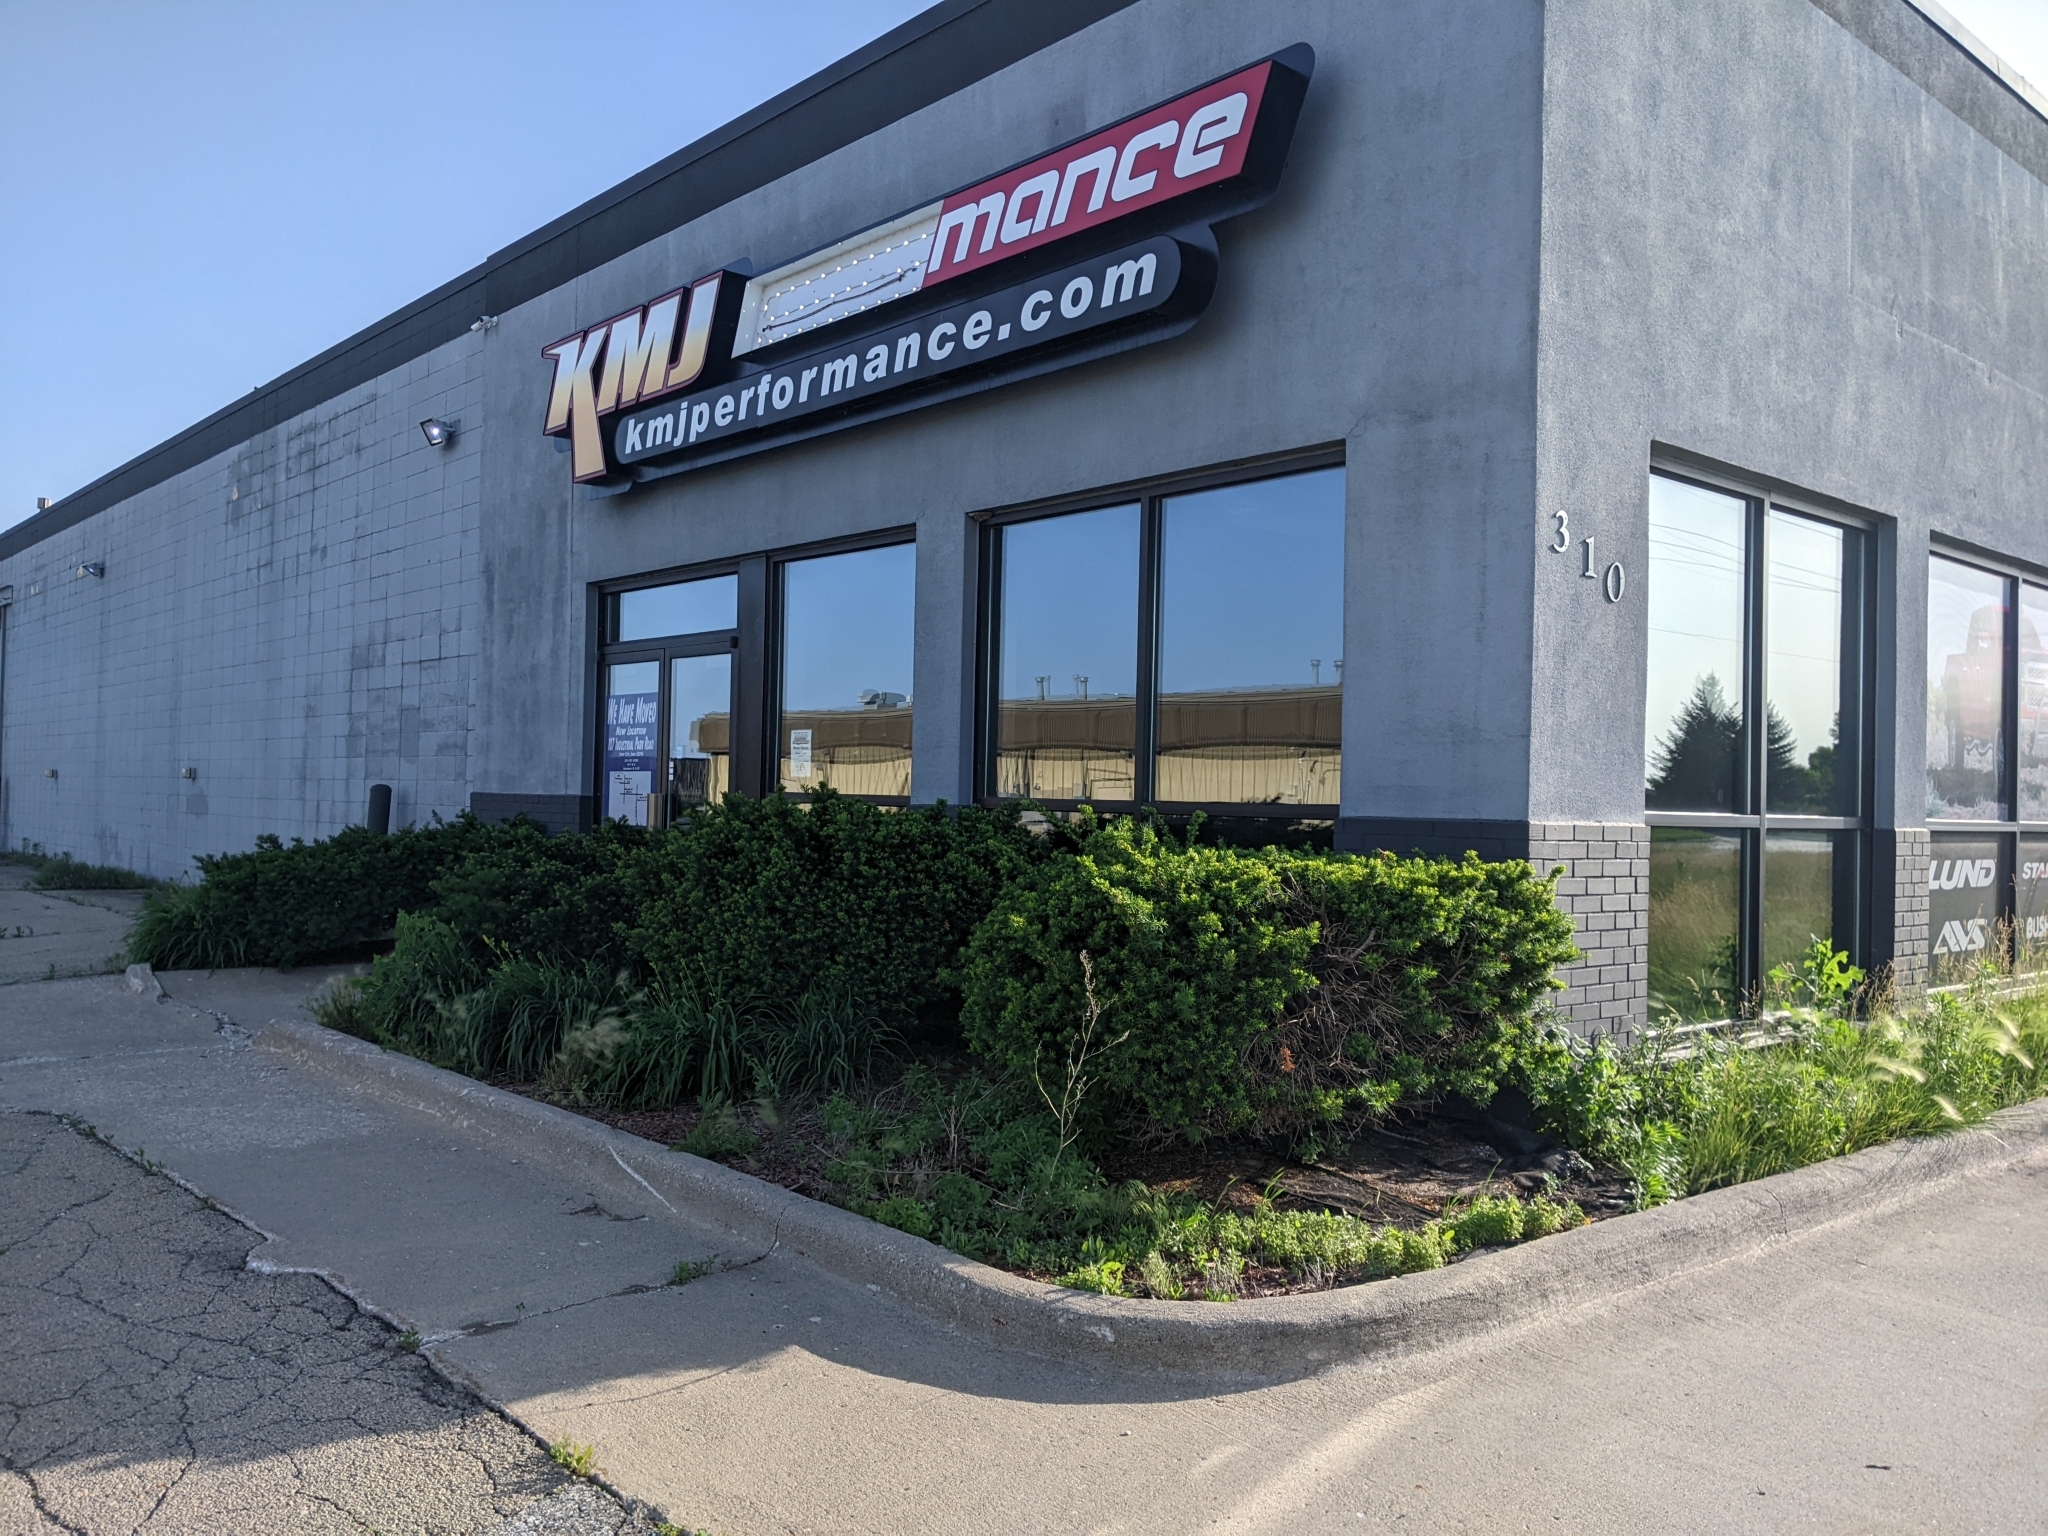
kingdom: Plantae
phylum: Tracheophyta
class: Magnoliopsida
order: Brassicales
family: Brassicaceae
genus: Thlaspi
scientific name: Thlaspi arvense
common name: Field pennycress
